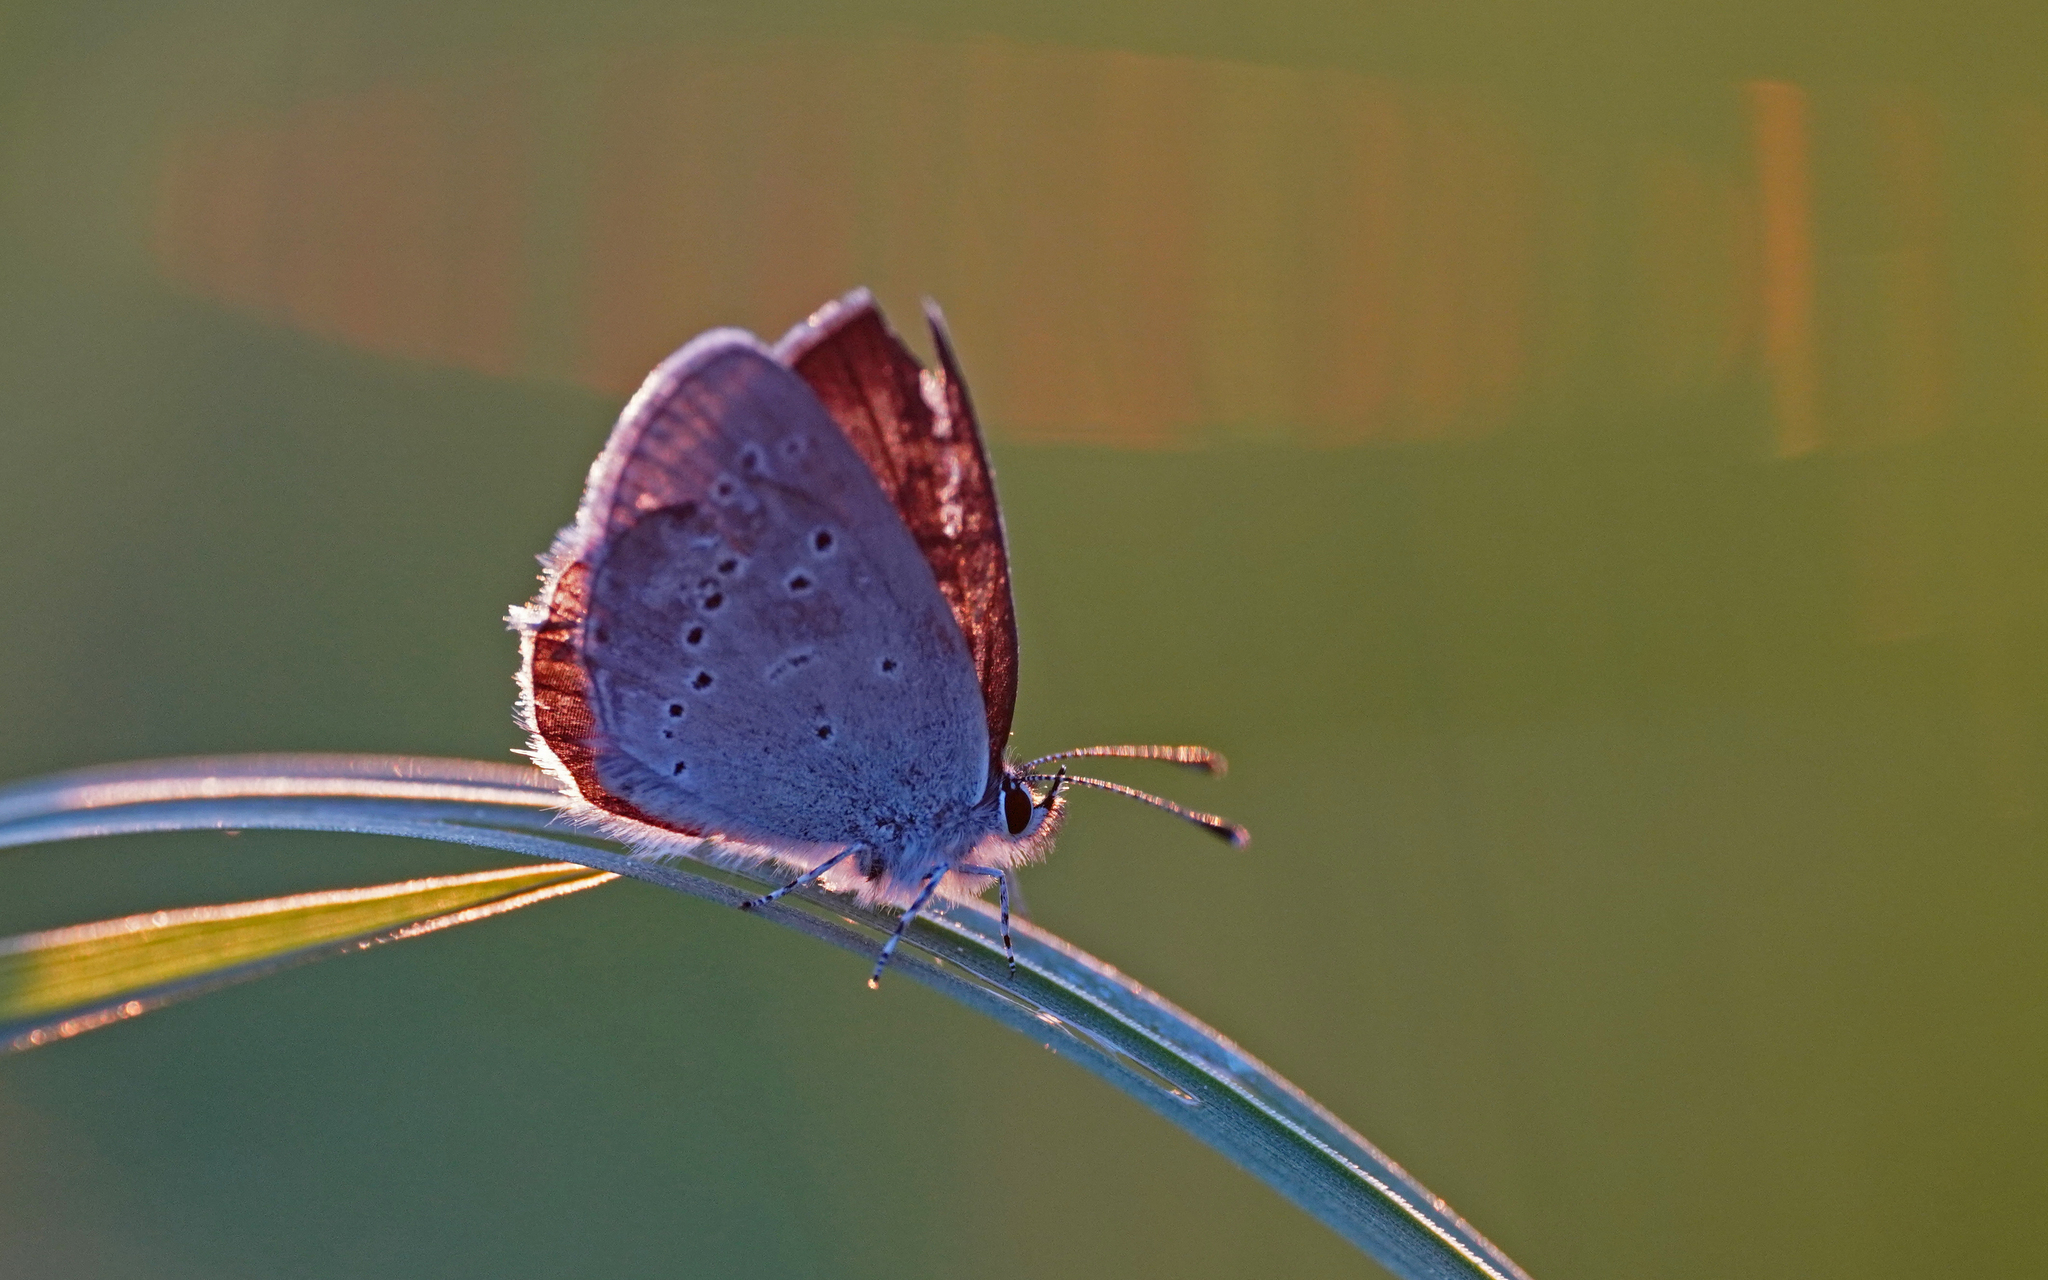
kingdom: Animalia
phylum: Arthropoda
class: Insecta
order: Lepidoptera
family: Lycaenidae
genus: Cupido
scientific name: Cupido minimus
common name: Small blue
